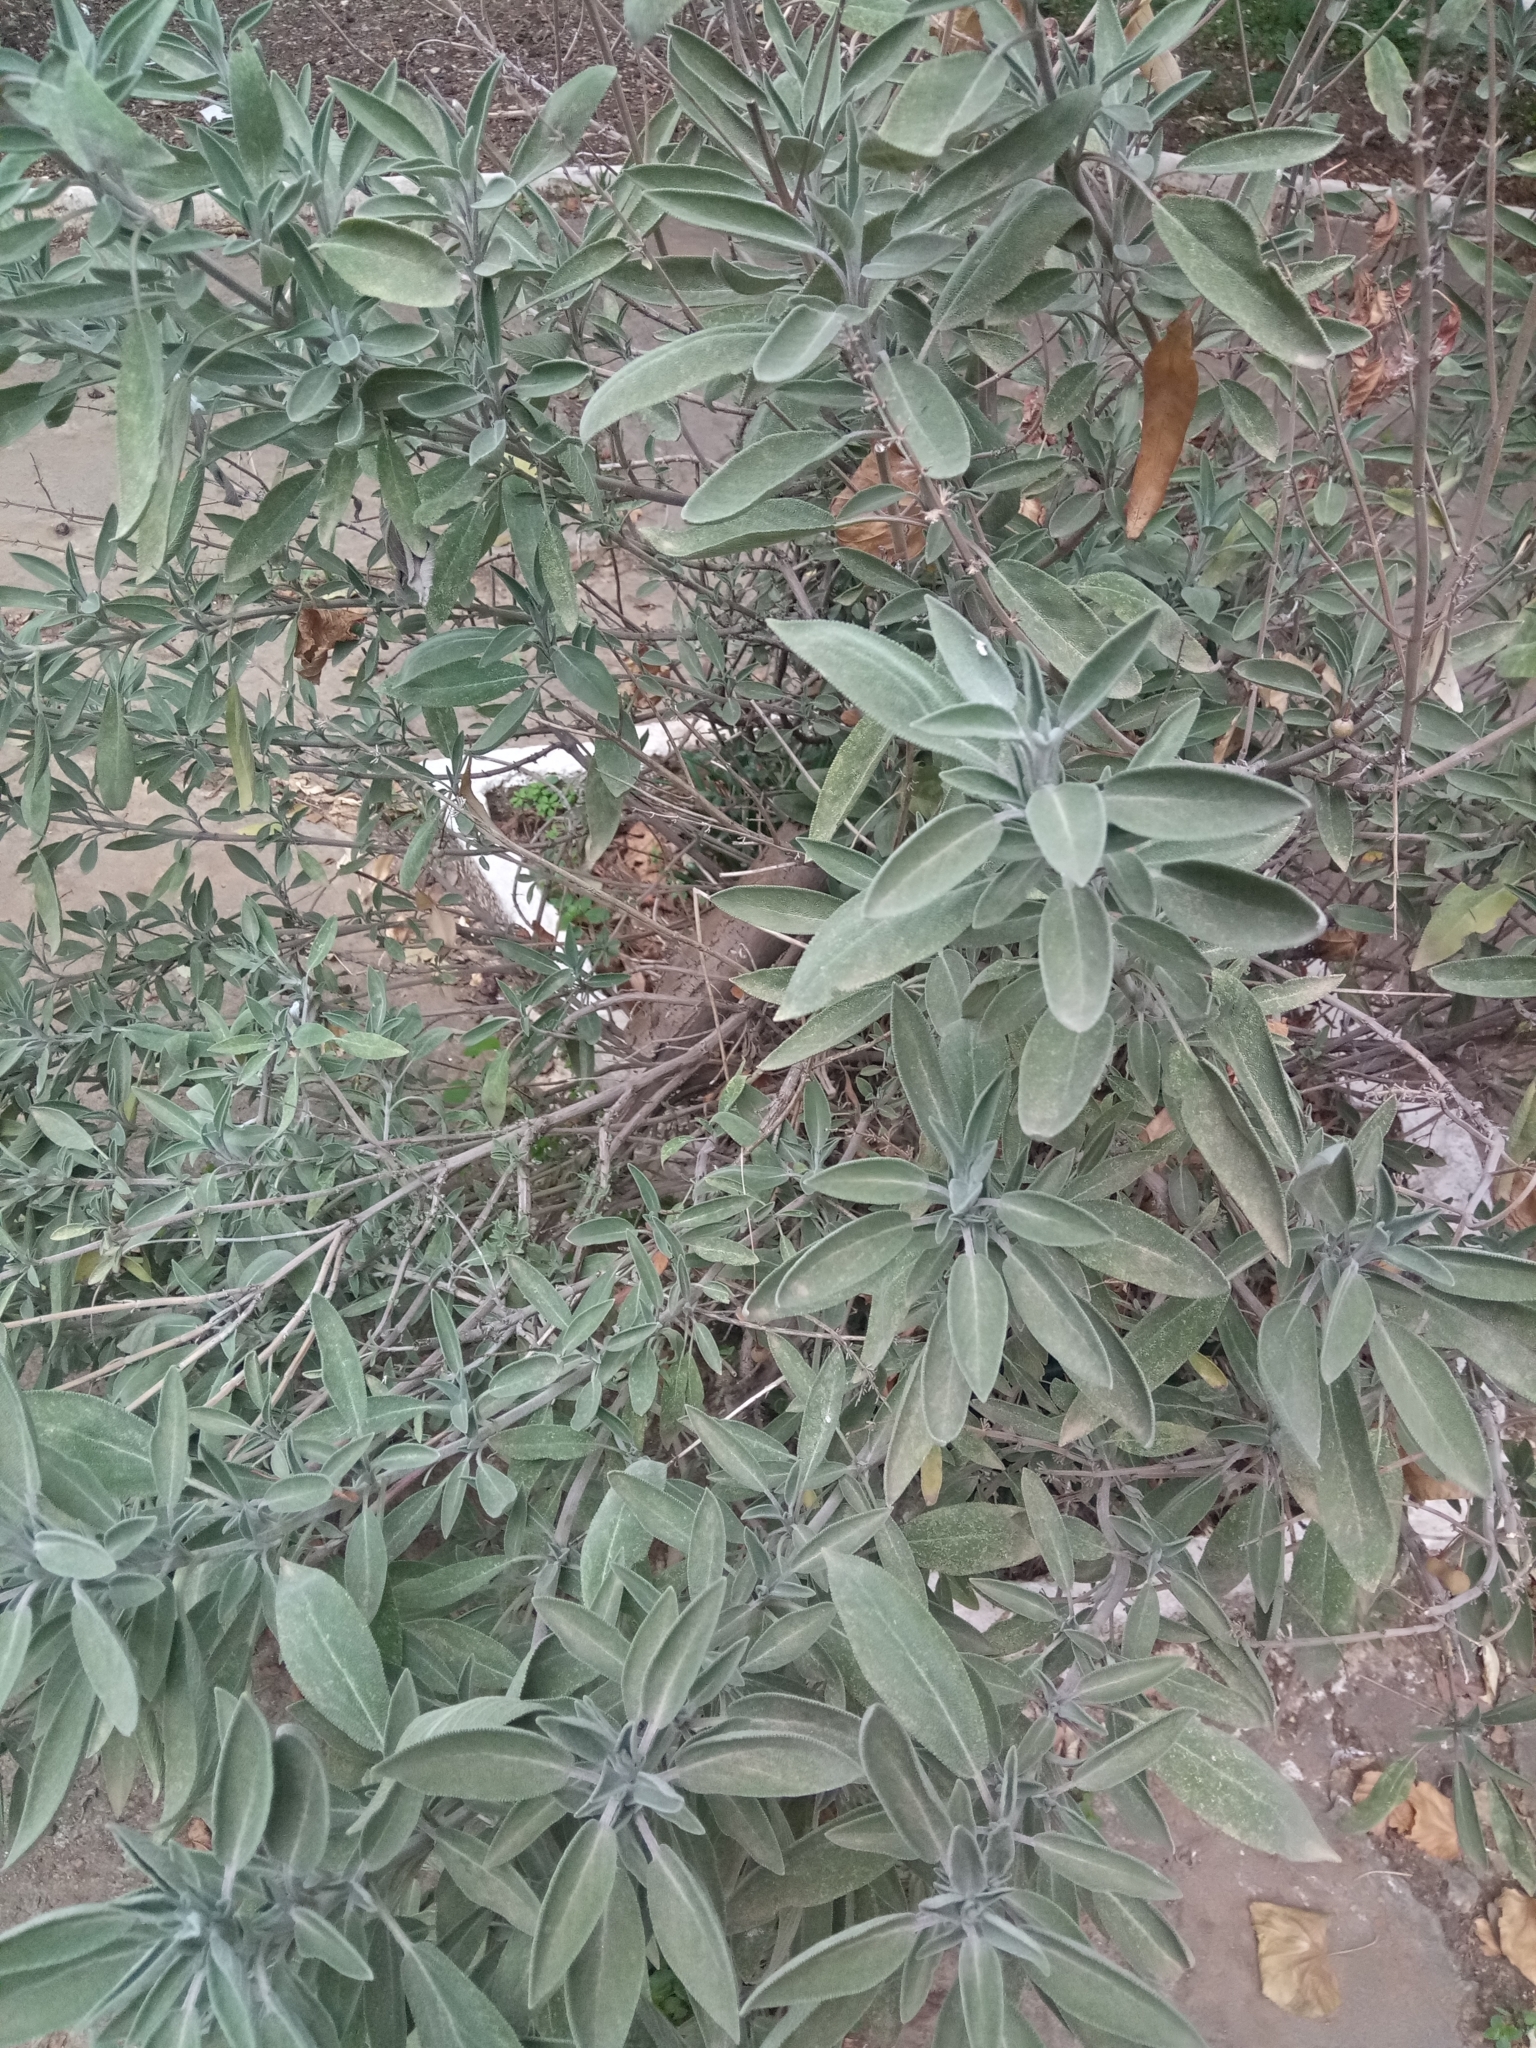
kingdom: Plantae
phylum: Tracheophyta
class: Magnoliopsida
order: Lamiales
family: Lamiaceae
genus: Salvia
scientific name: Salvia officinalis
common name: Sage
